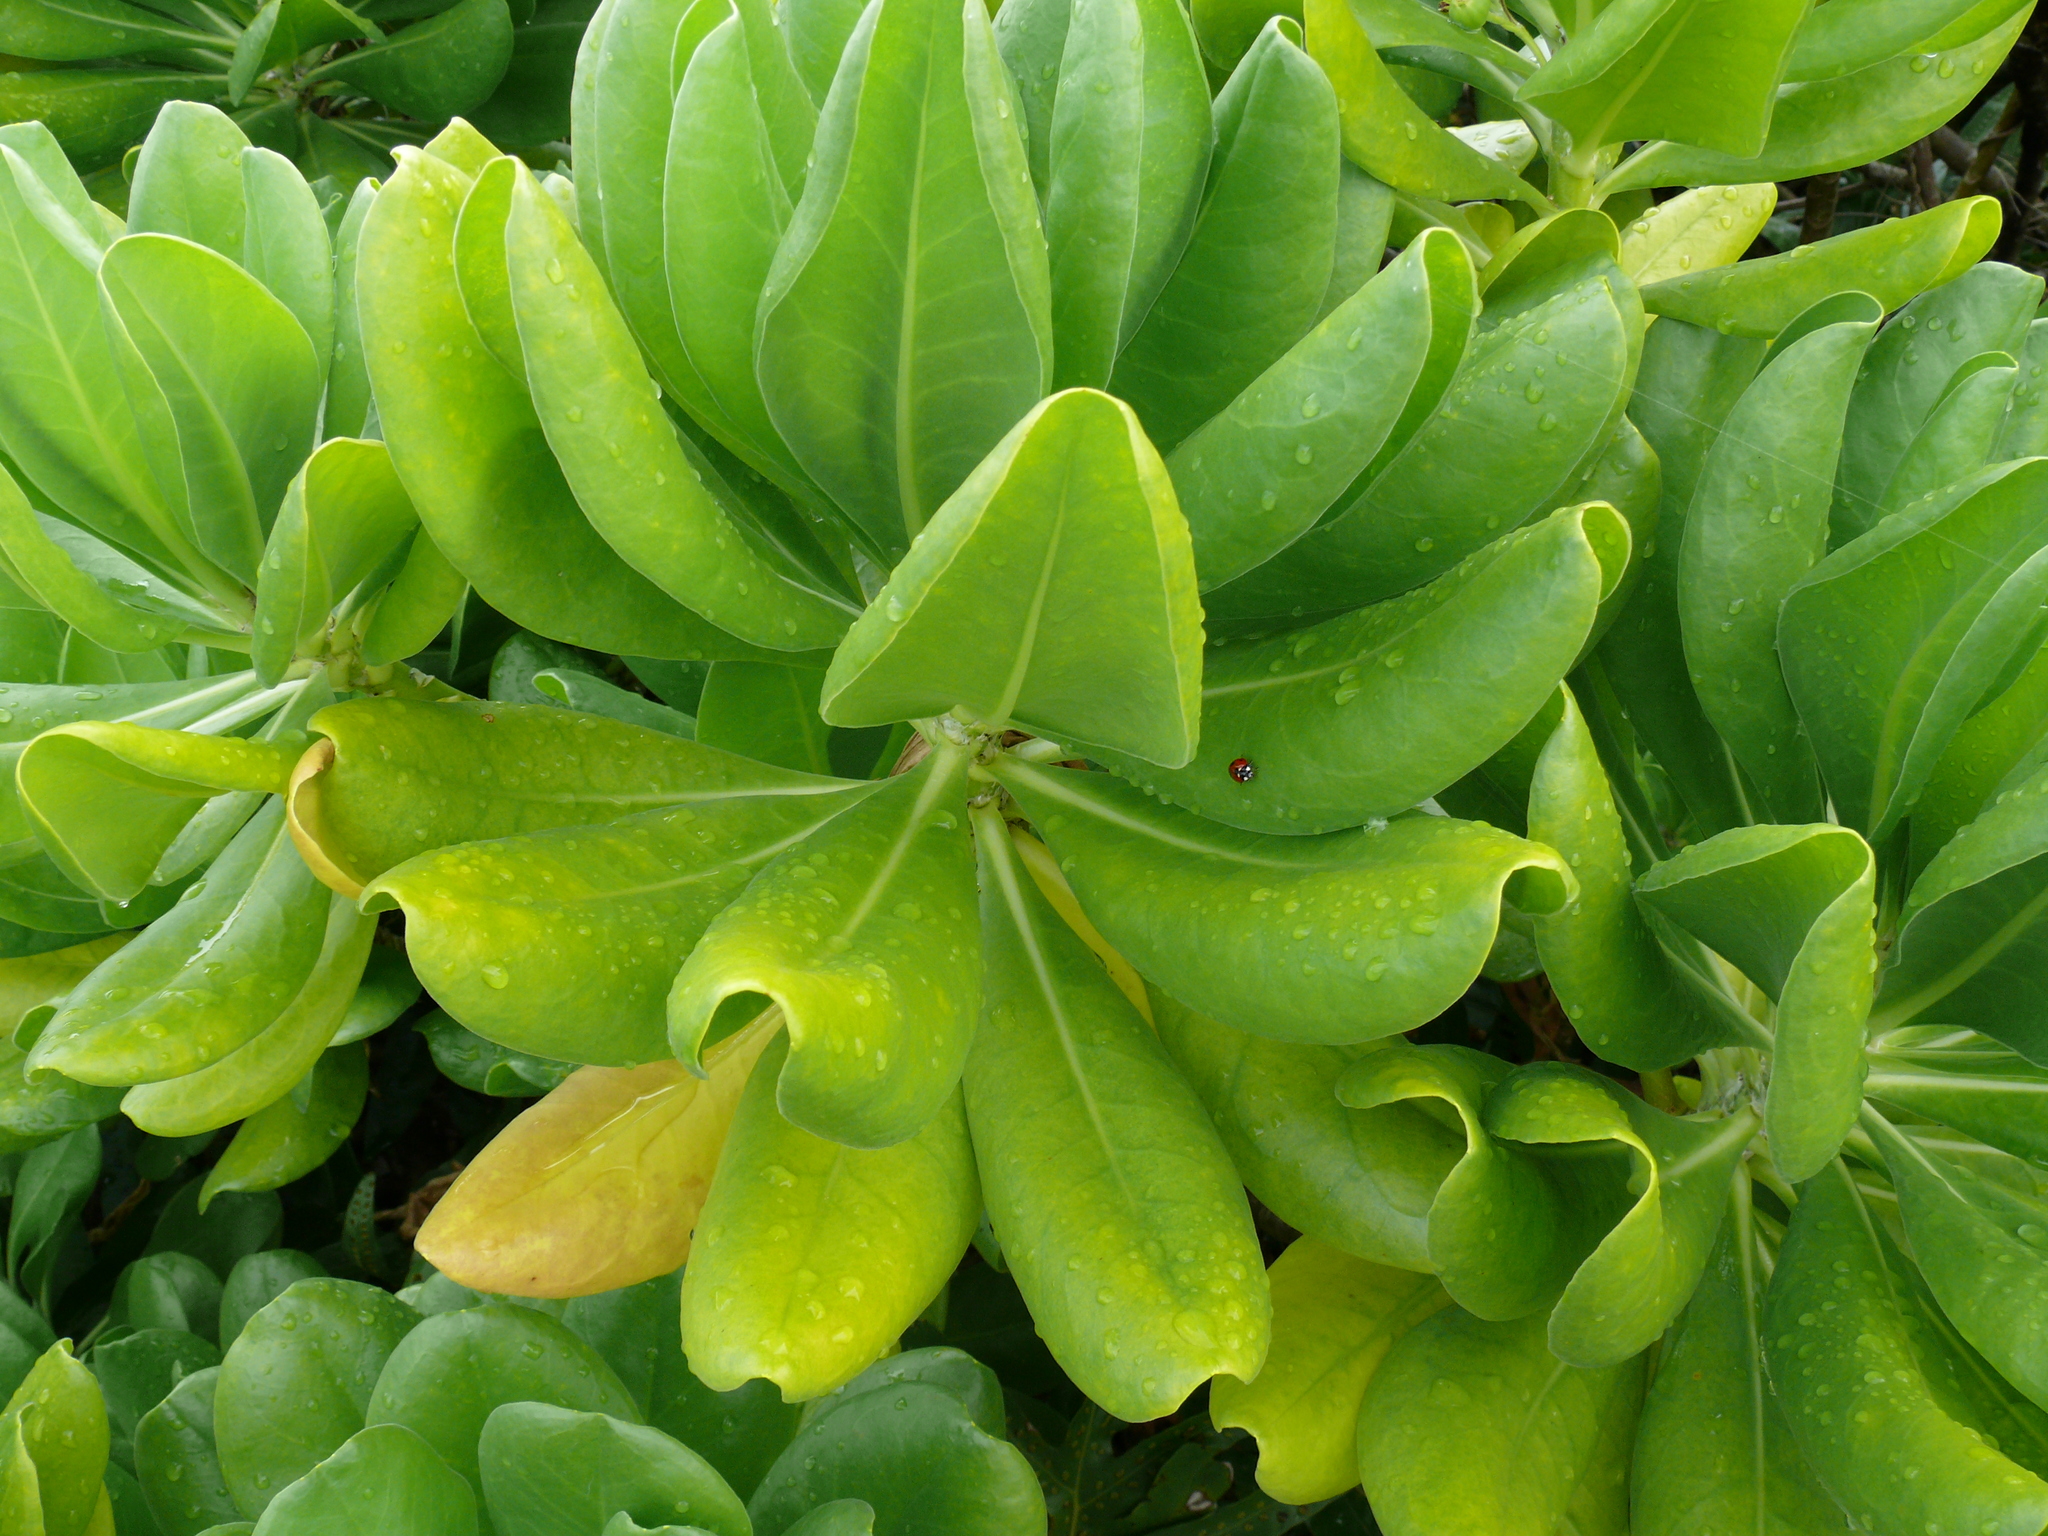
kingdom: Plantae
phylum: Tracheophyta
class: Magnoliopsida
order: Asterales
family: Goodeniaceae
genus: Scaevola
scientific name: Scaevola taccada
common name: Sea lettucetree
